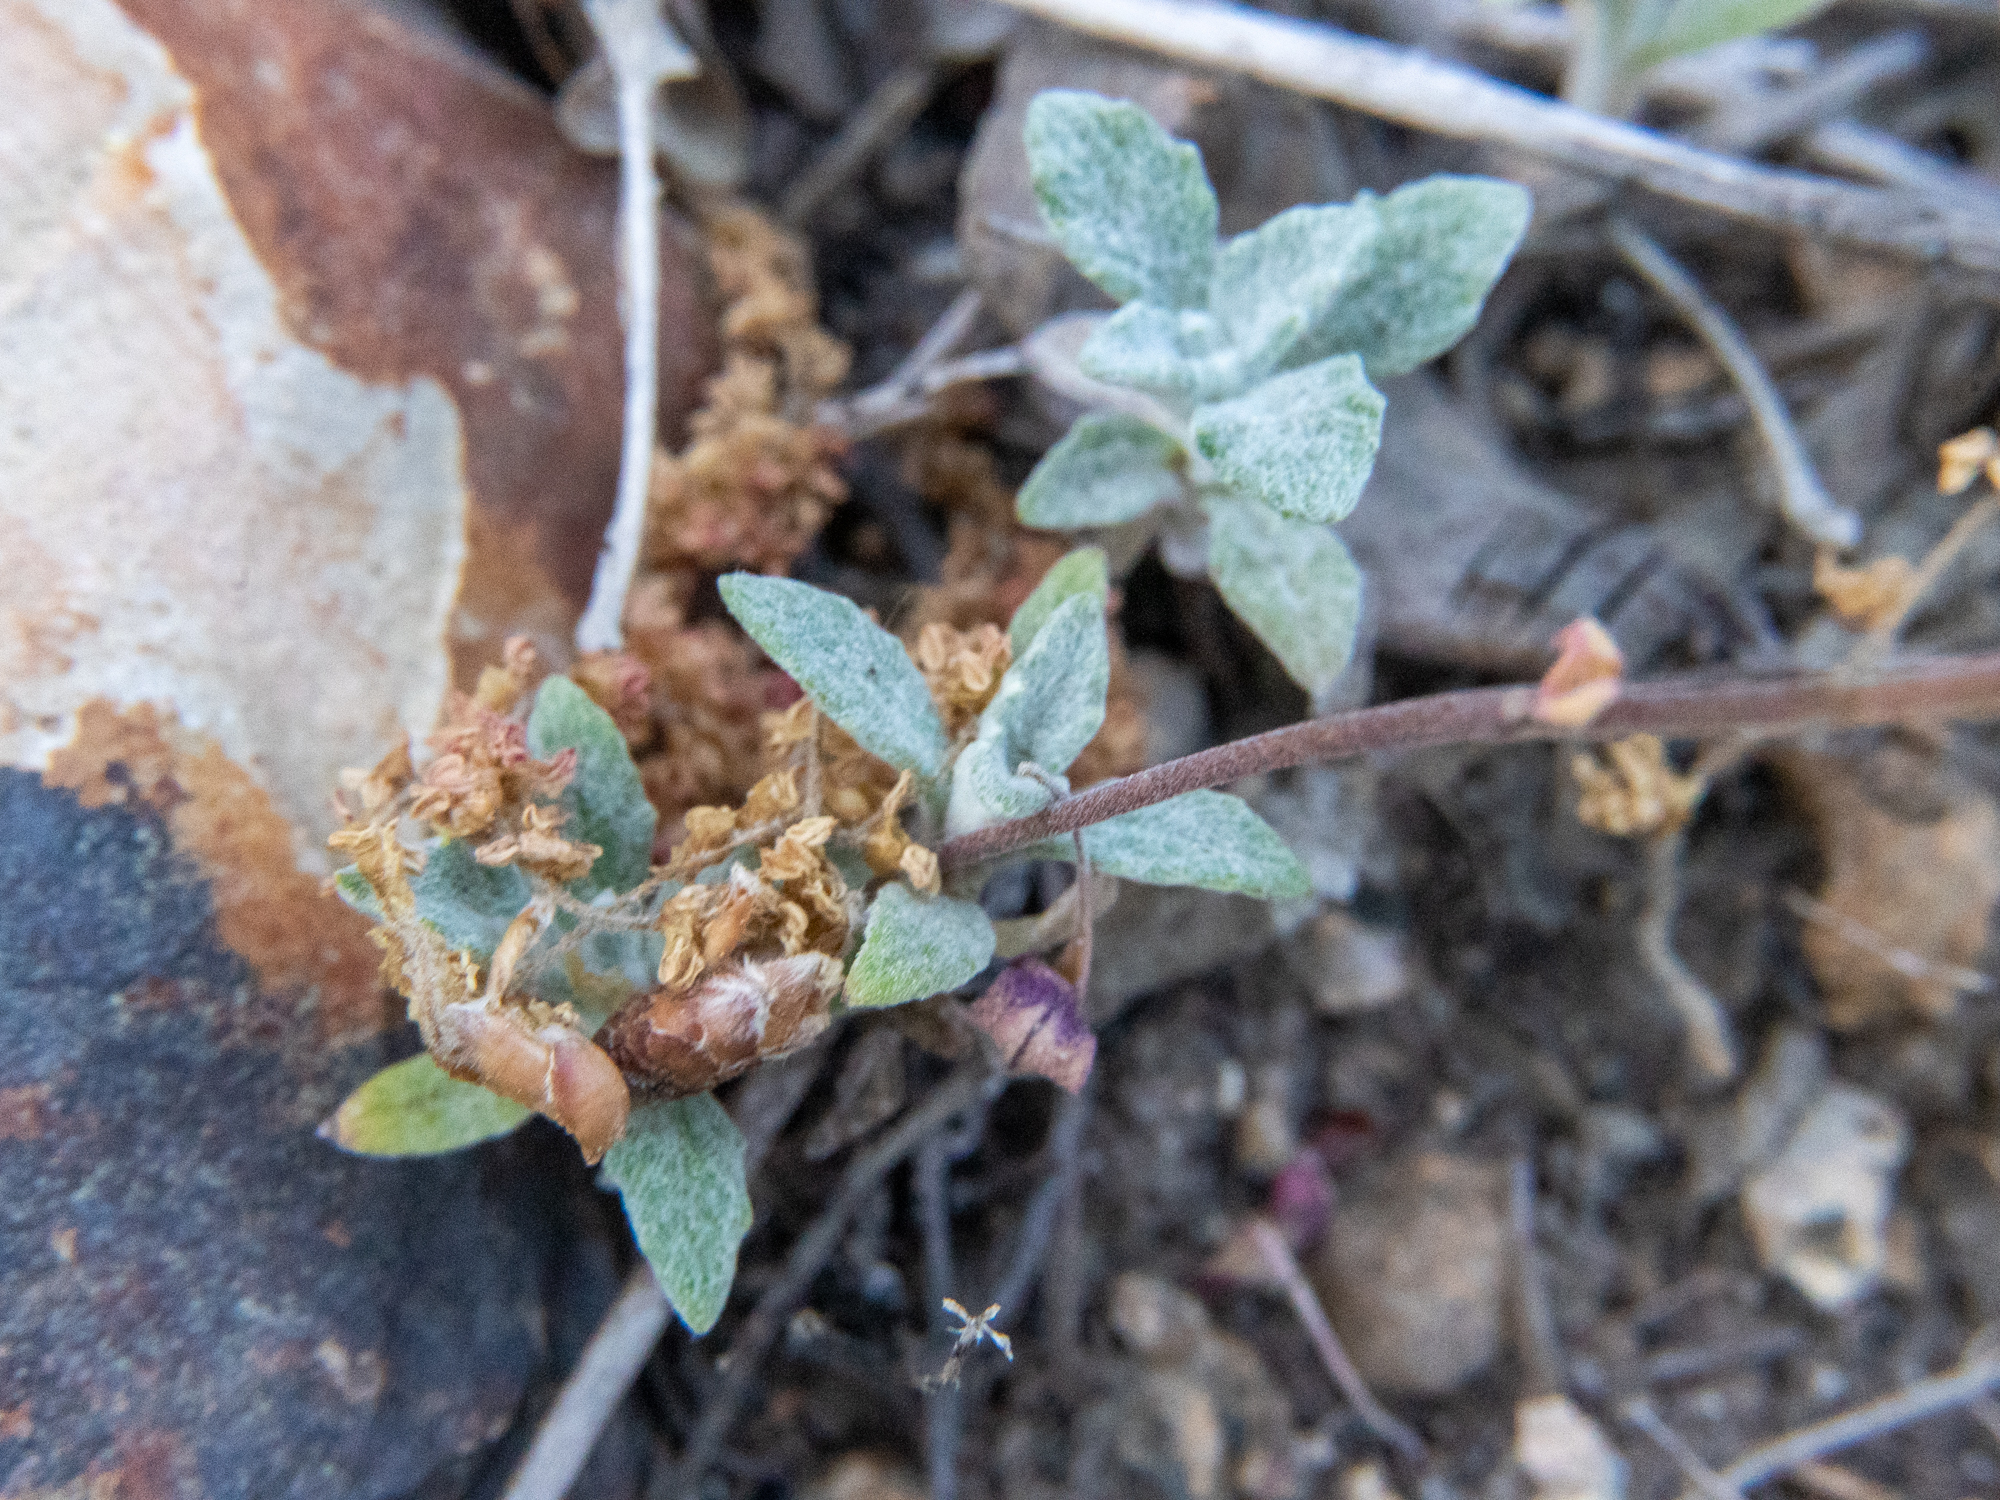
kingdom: Plantae
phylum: Tracheophyta
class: Magnoliopsida
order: Myrtales
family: Onagraceae
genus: Clarkia
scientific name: Clarkia rhomboidea
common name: Broadleaf clarkia
